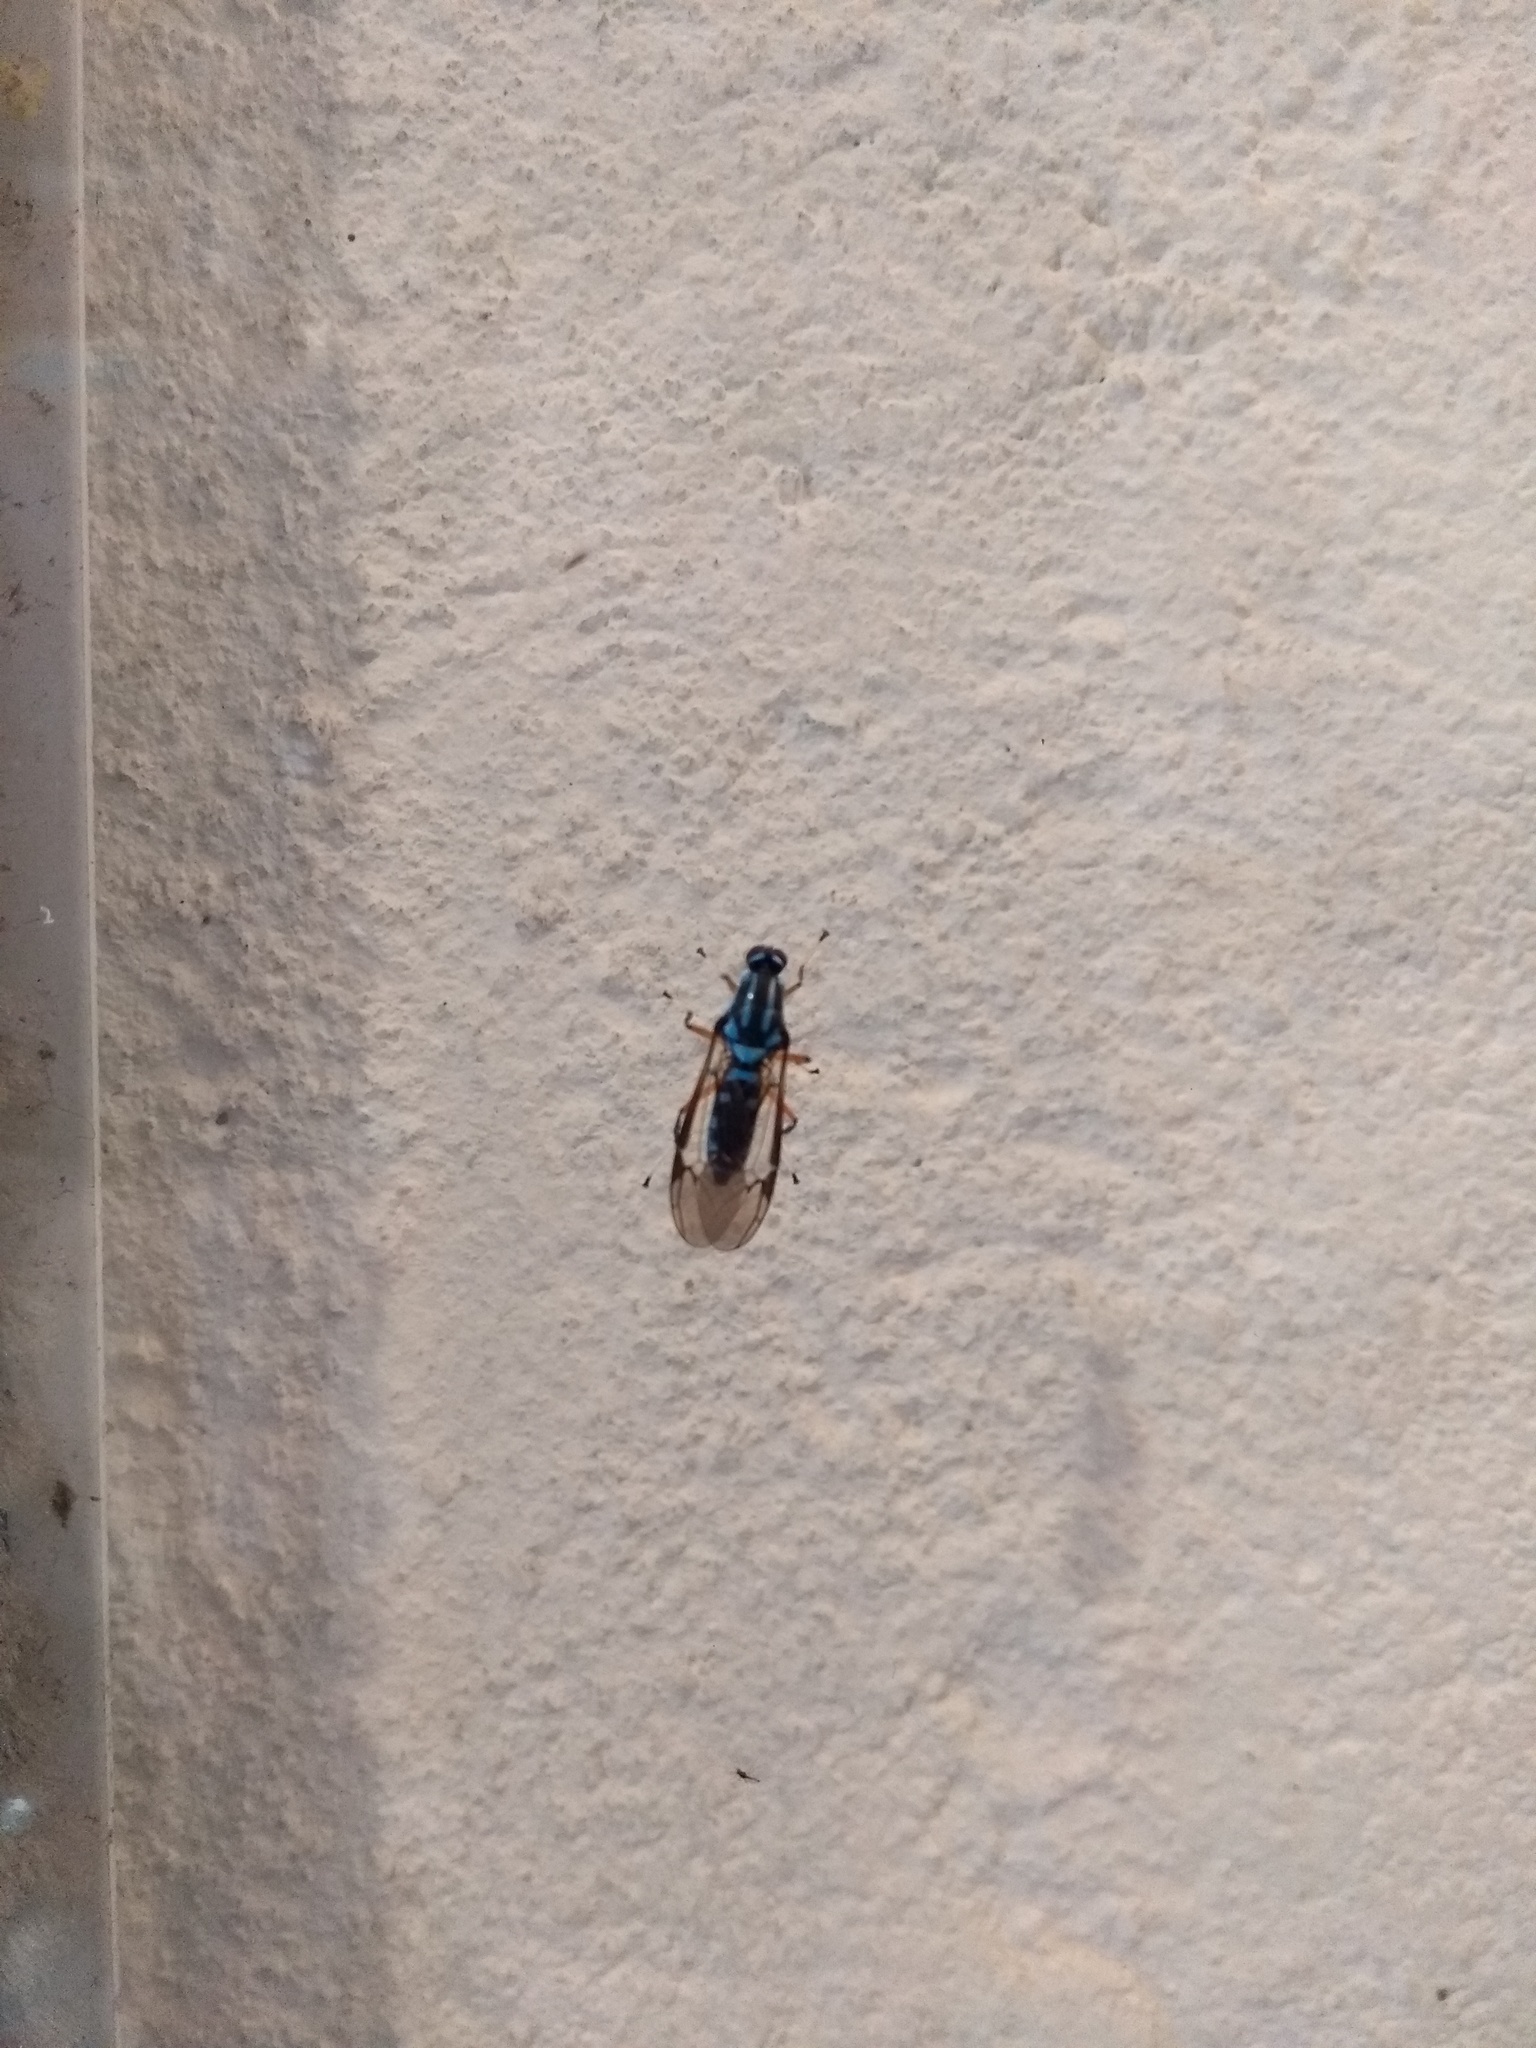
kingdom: Animalia
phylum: Arthropoda
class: Insecta
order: Diptera
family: Stratiomyidae
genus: Raphiocera
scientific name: Raphiocera armata
